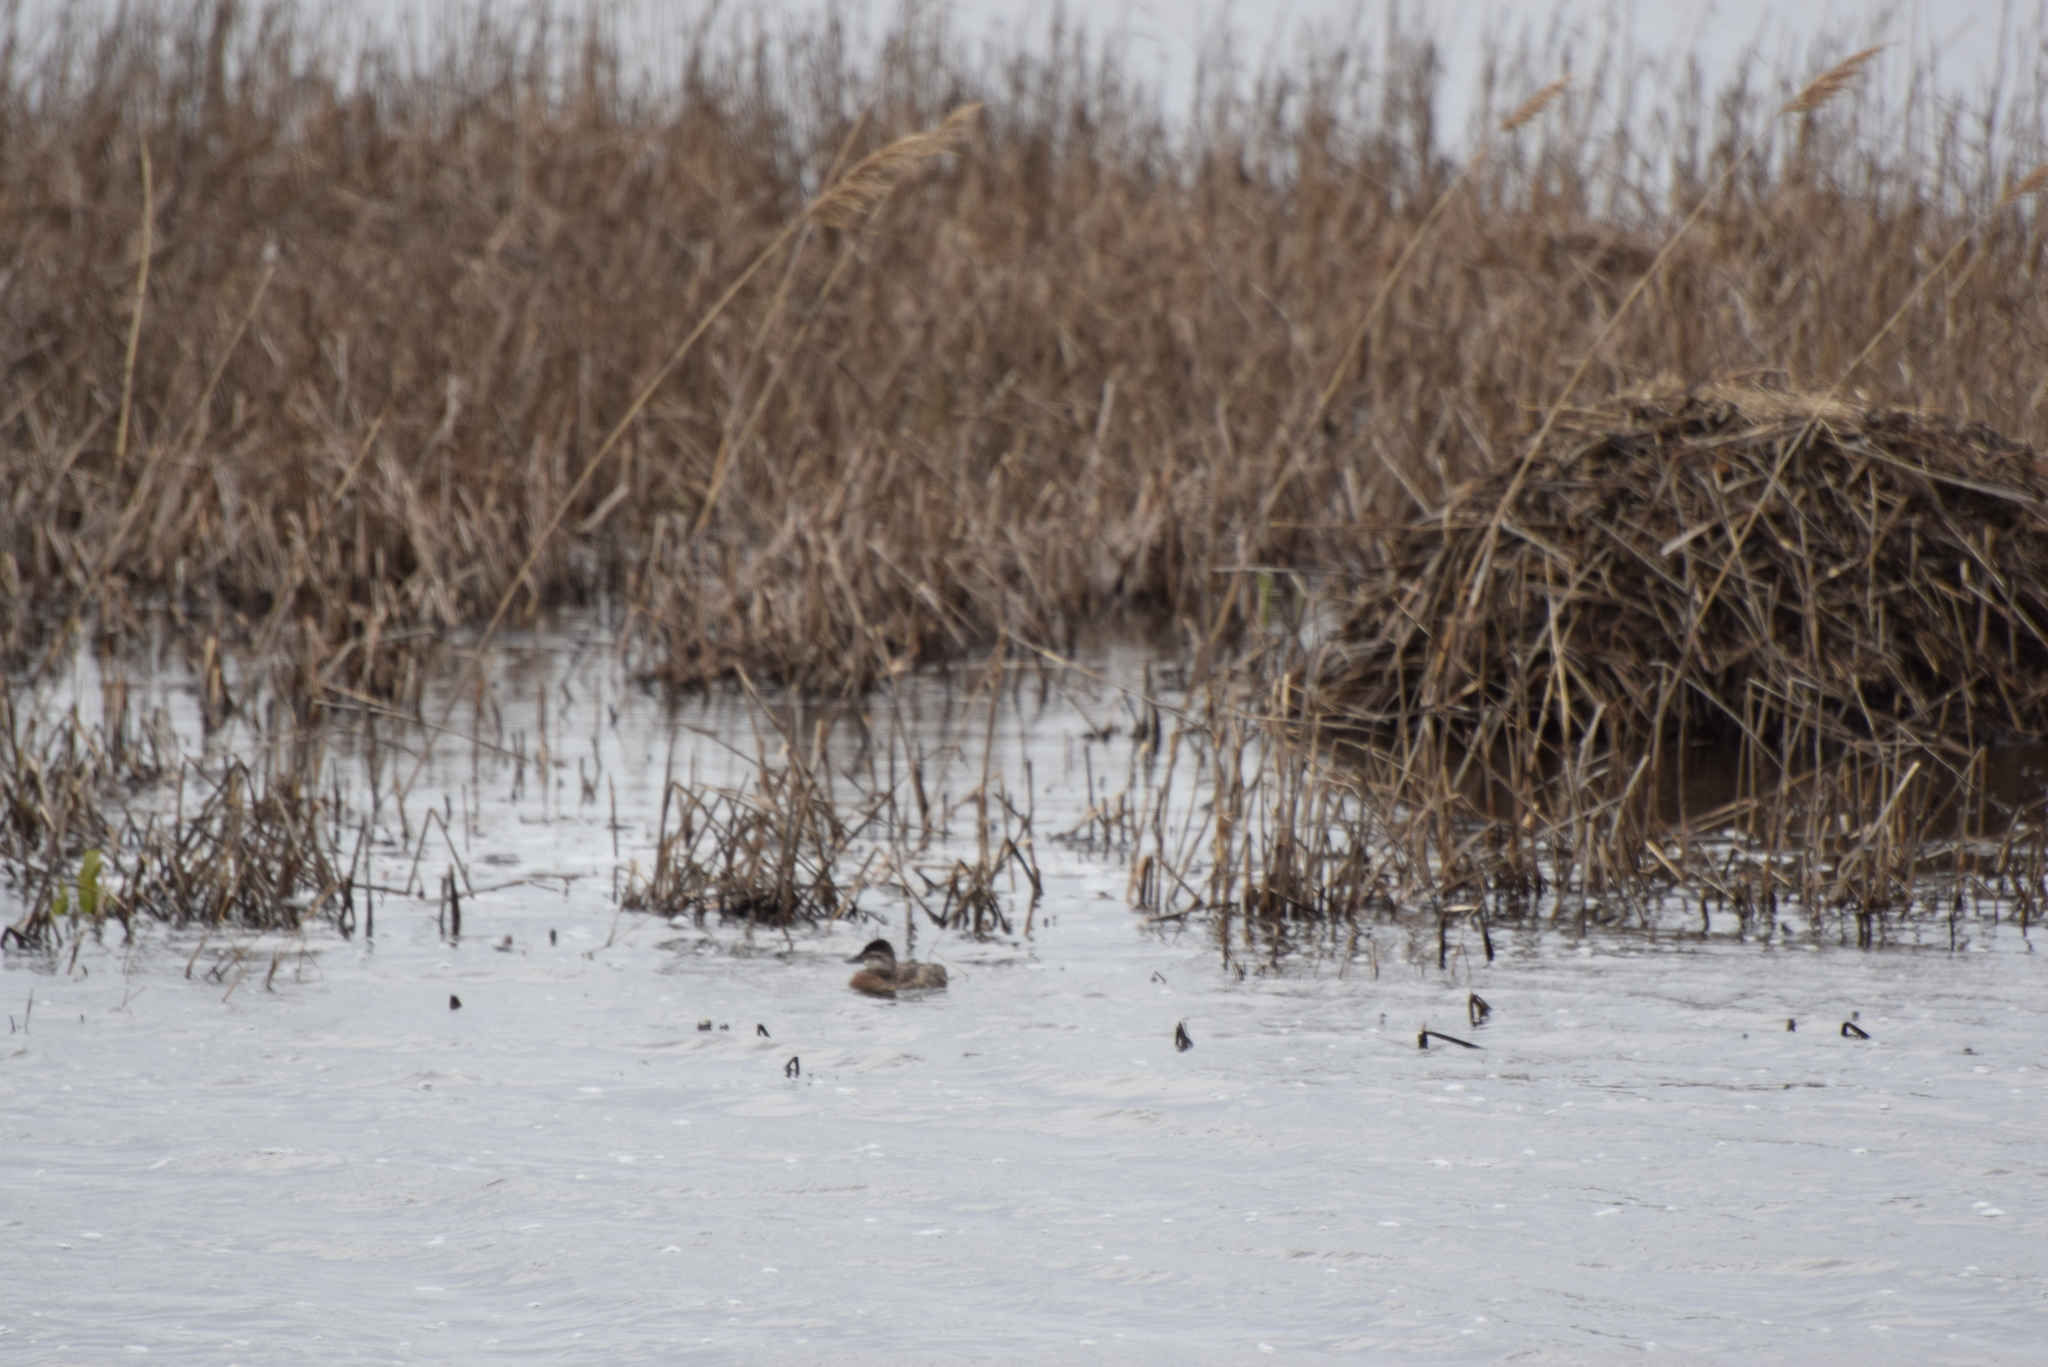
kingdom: Animalia
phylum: Chordata
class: Aves
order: Anseriformes
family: Anatidae
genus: Oxyura
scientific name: Oxyura jamaicensis
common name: Ruddy duck
